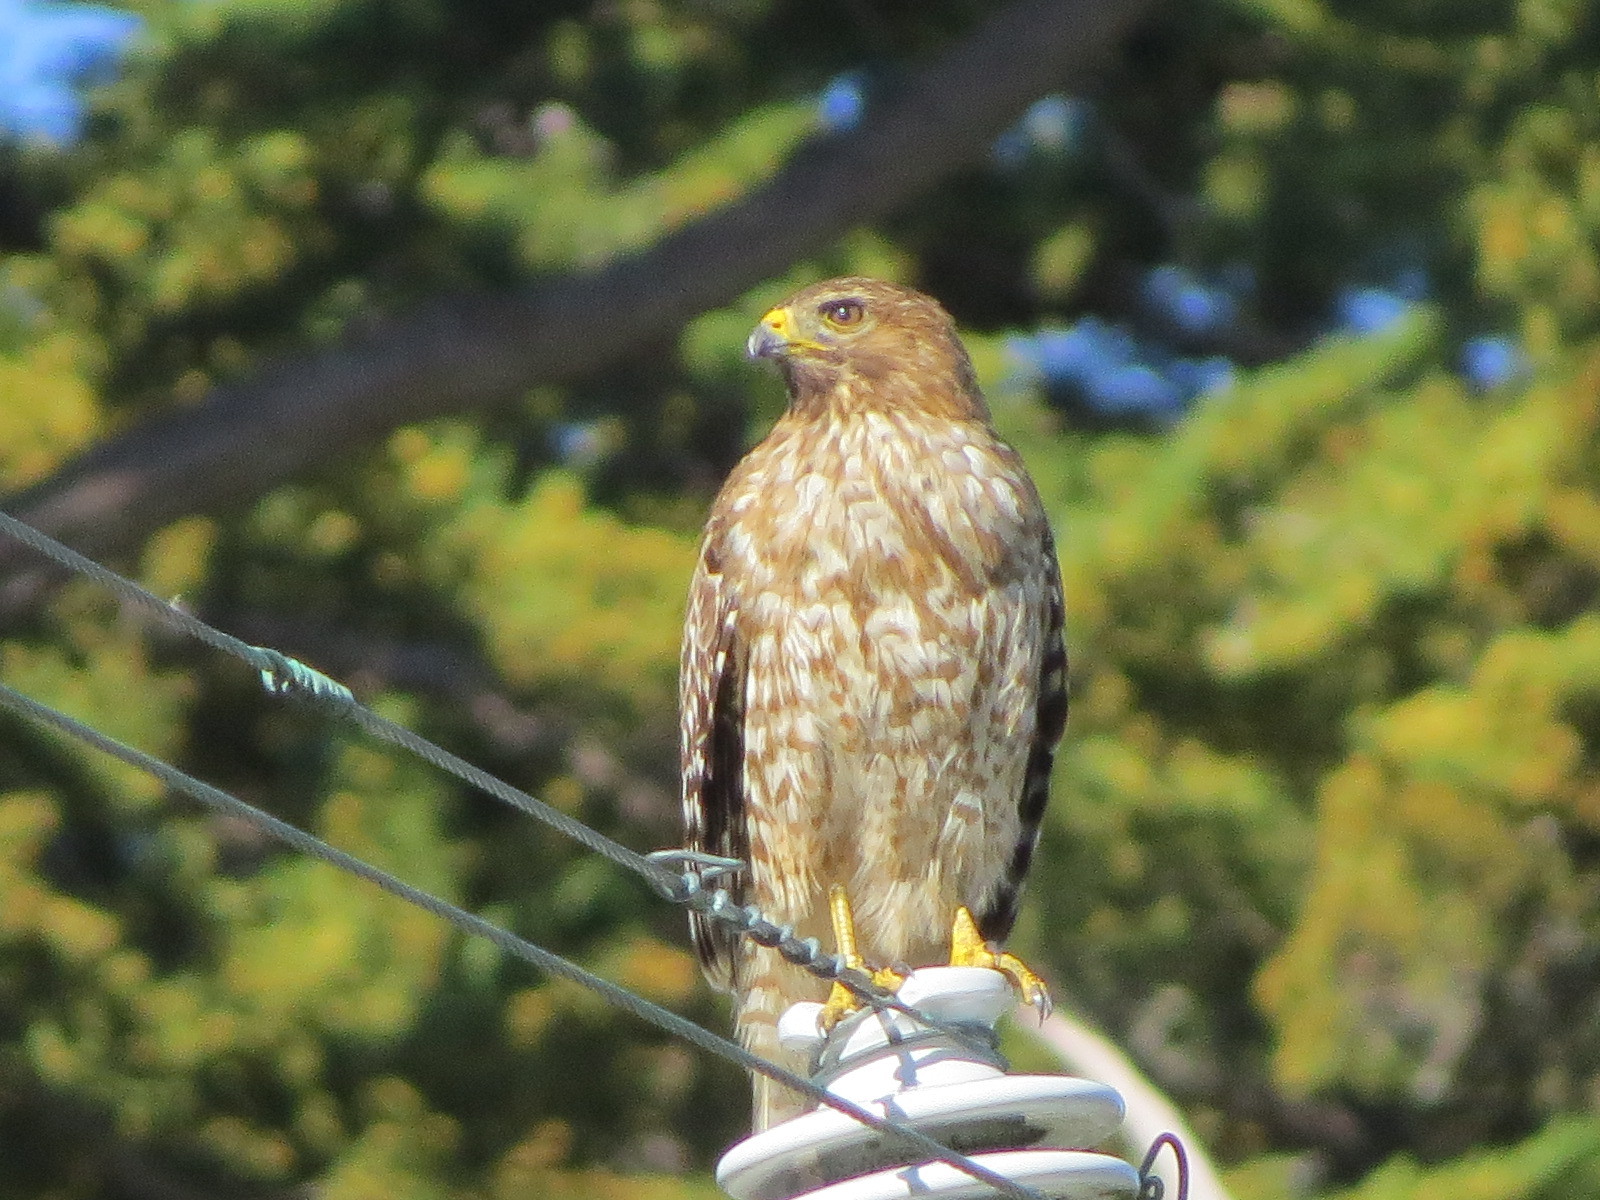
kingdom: Animalia
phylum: Chordata
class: Aves
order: Accipitriformes
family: Accipitridae
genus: Buteo
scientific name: Buteo lineatus
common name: Red-shouldered hawk
